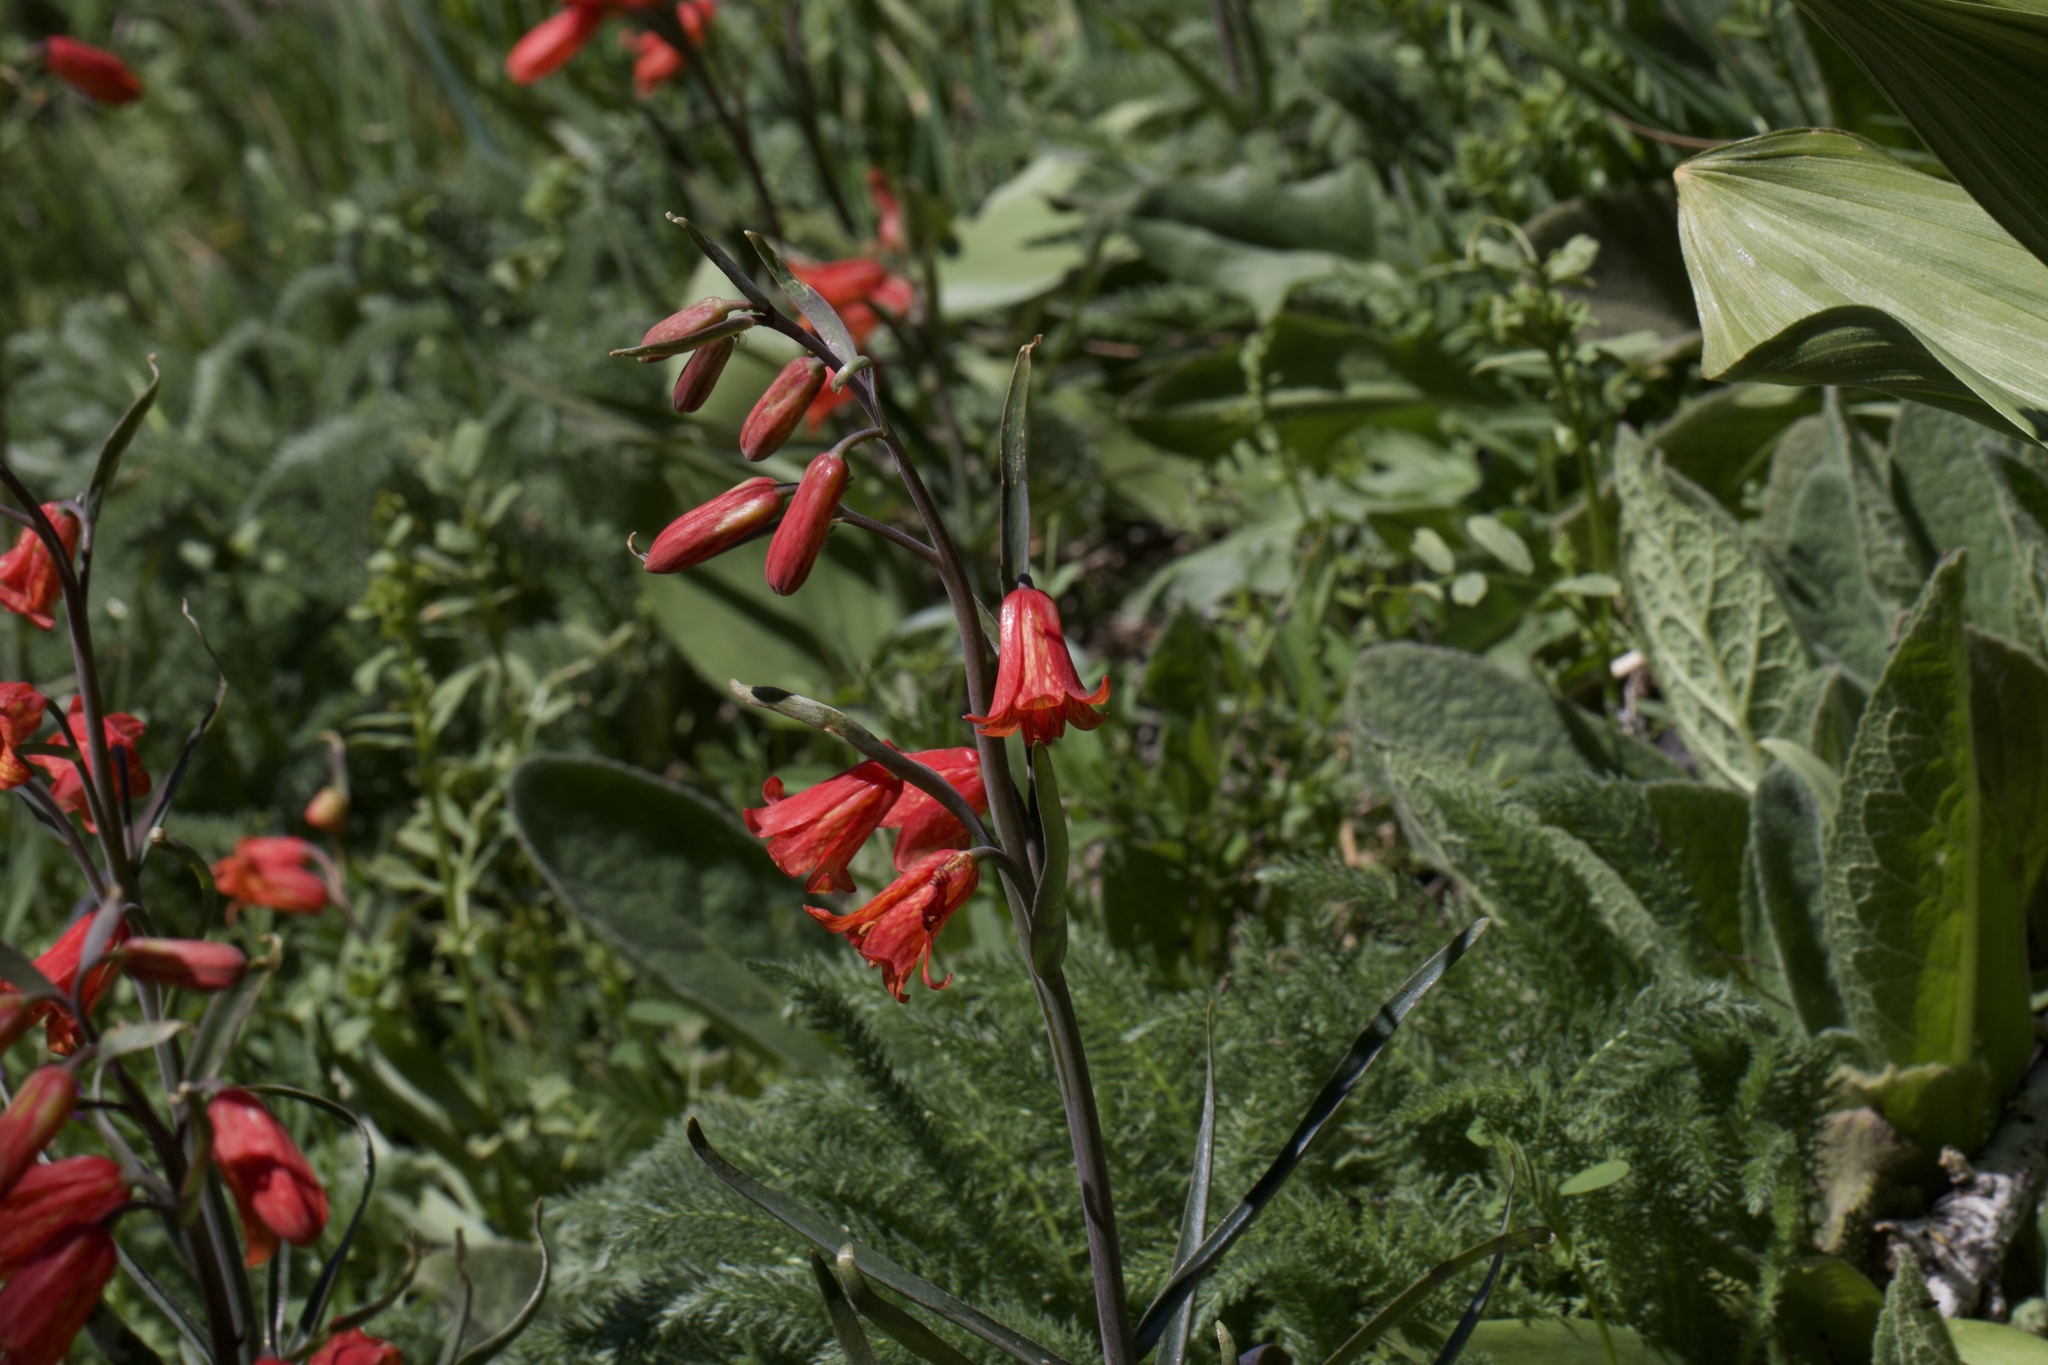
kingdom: Plantae
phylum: Tracheophyta
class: Liliopsida
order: Liliales
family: Liliaceae
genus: Fritillaria
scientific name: Fritillaria recurva
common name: Scarlet fritillary
